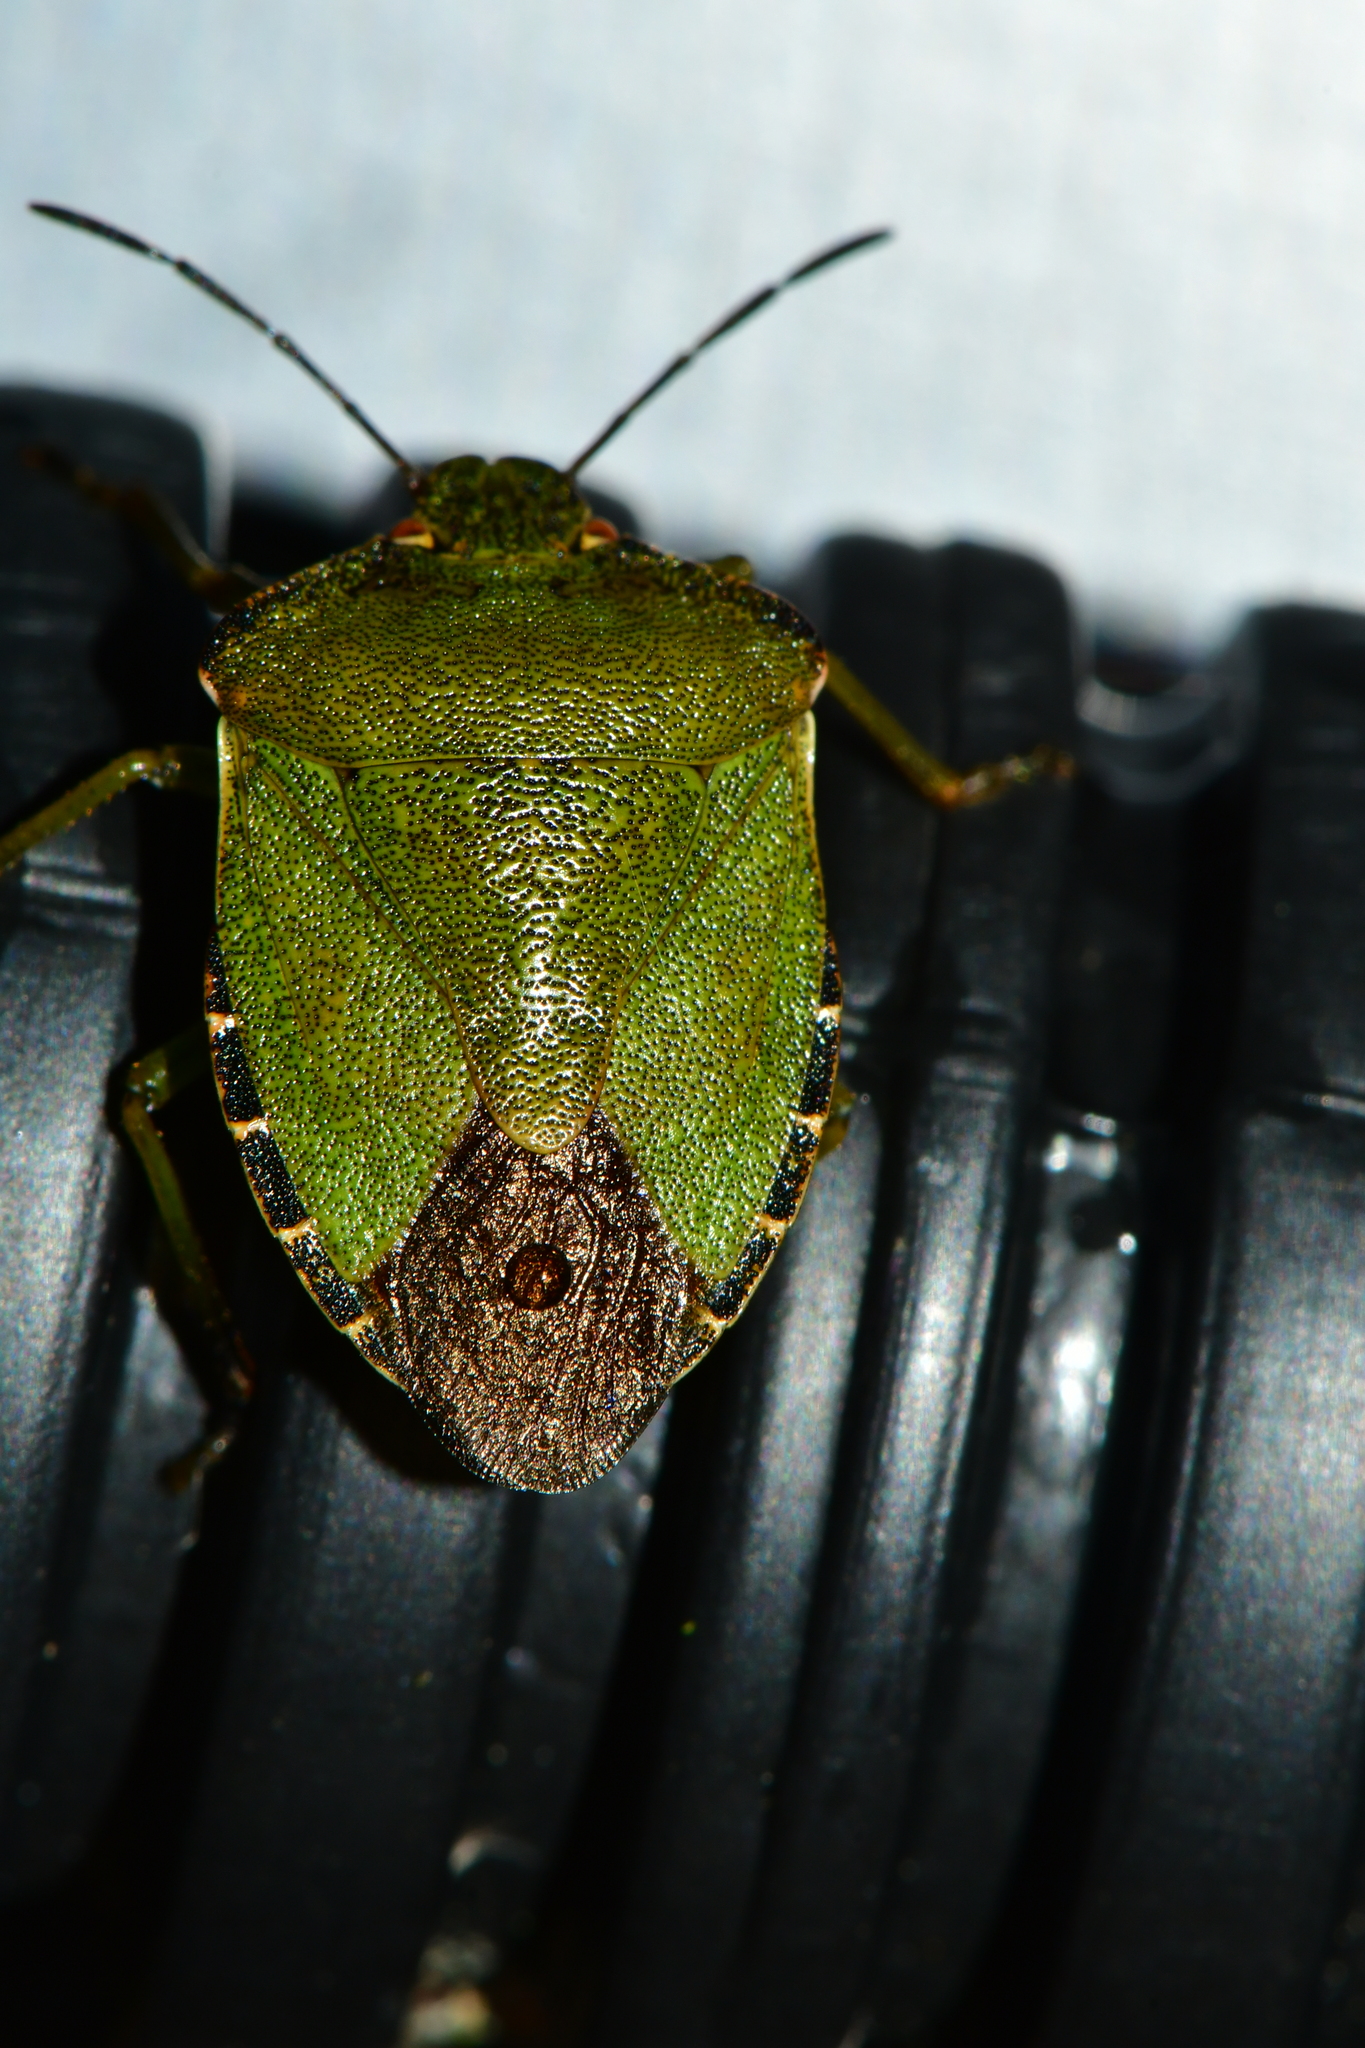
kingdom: Animalia
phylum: Arthropoda
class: Insecta
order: Hemiptera
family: Pentatomidae
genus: Palomena
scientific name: Palomena prasina
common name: Green shieldbug
